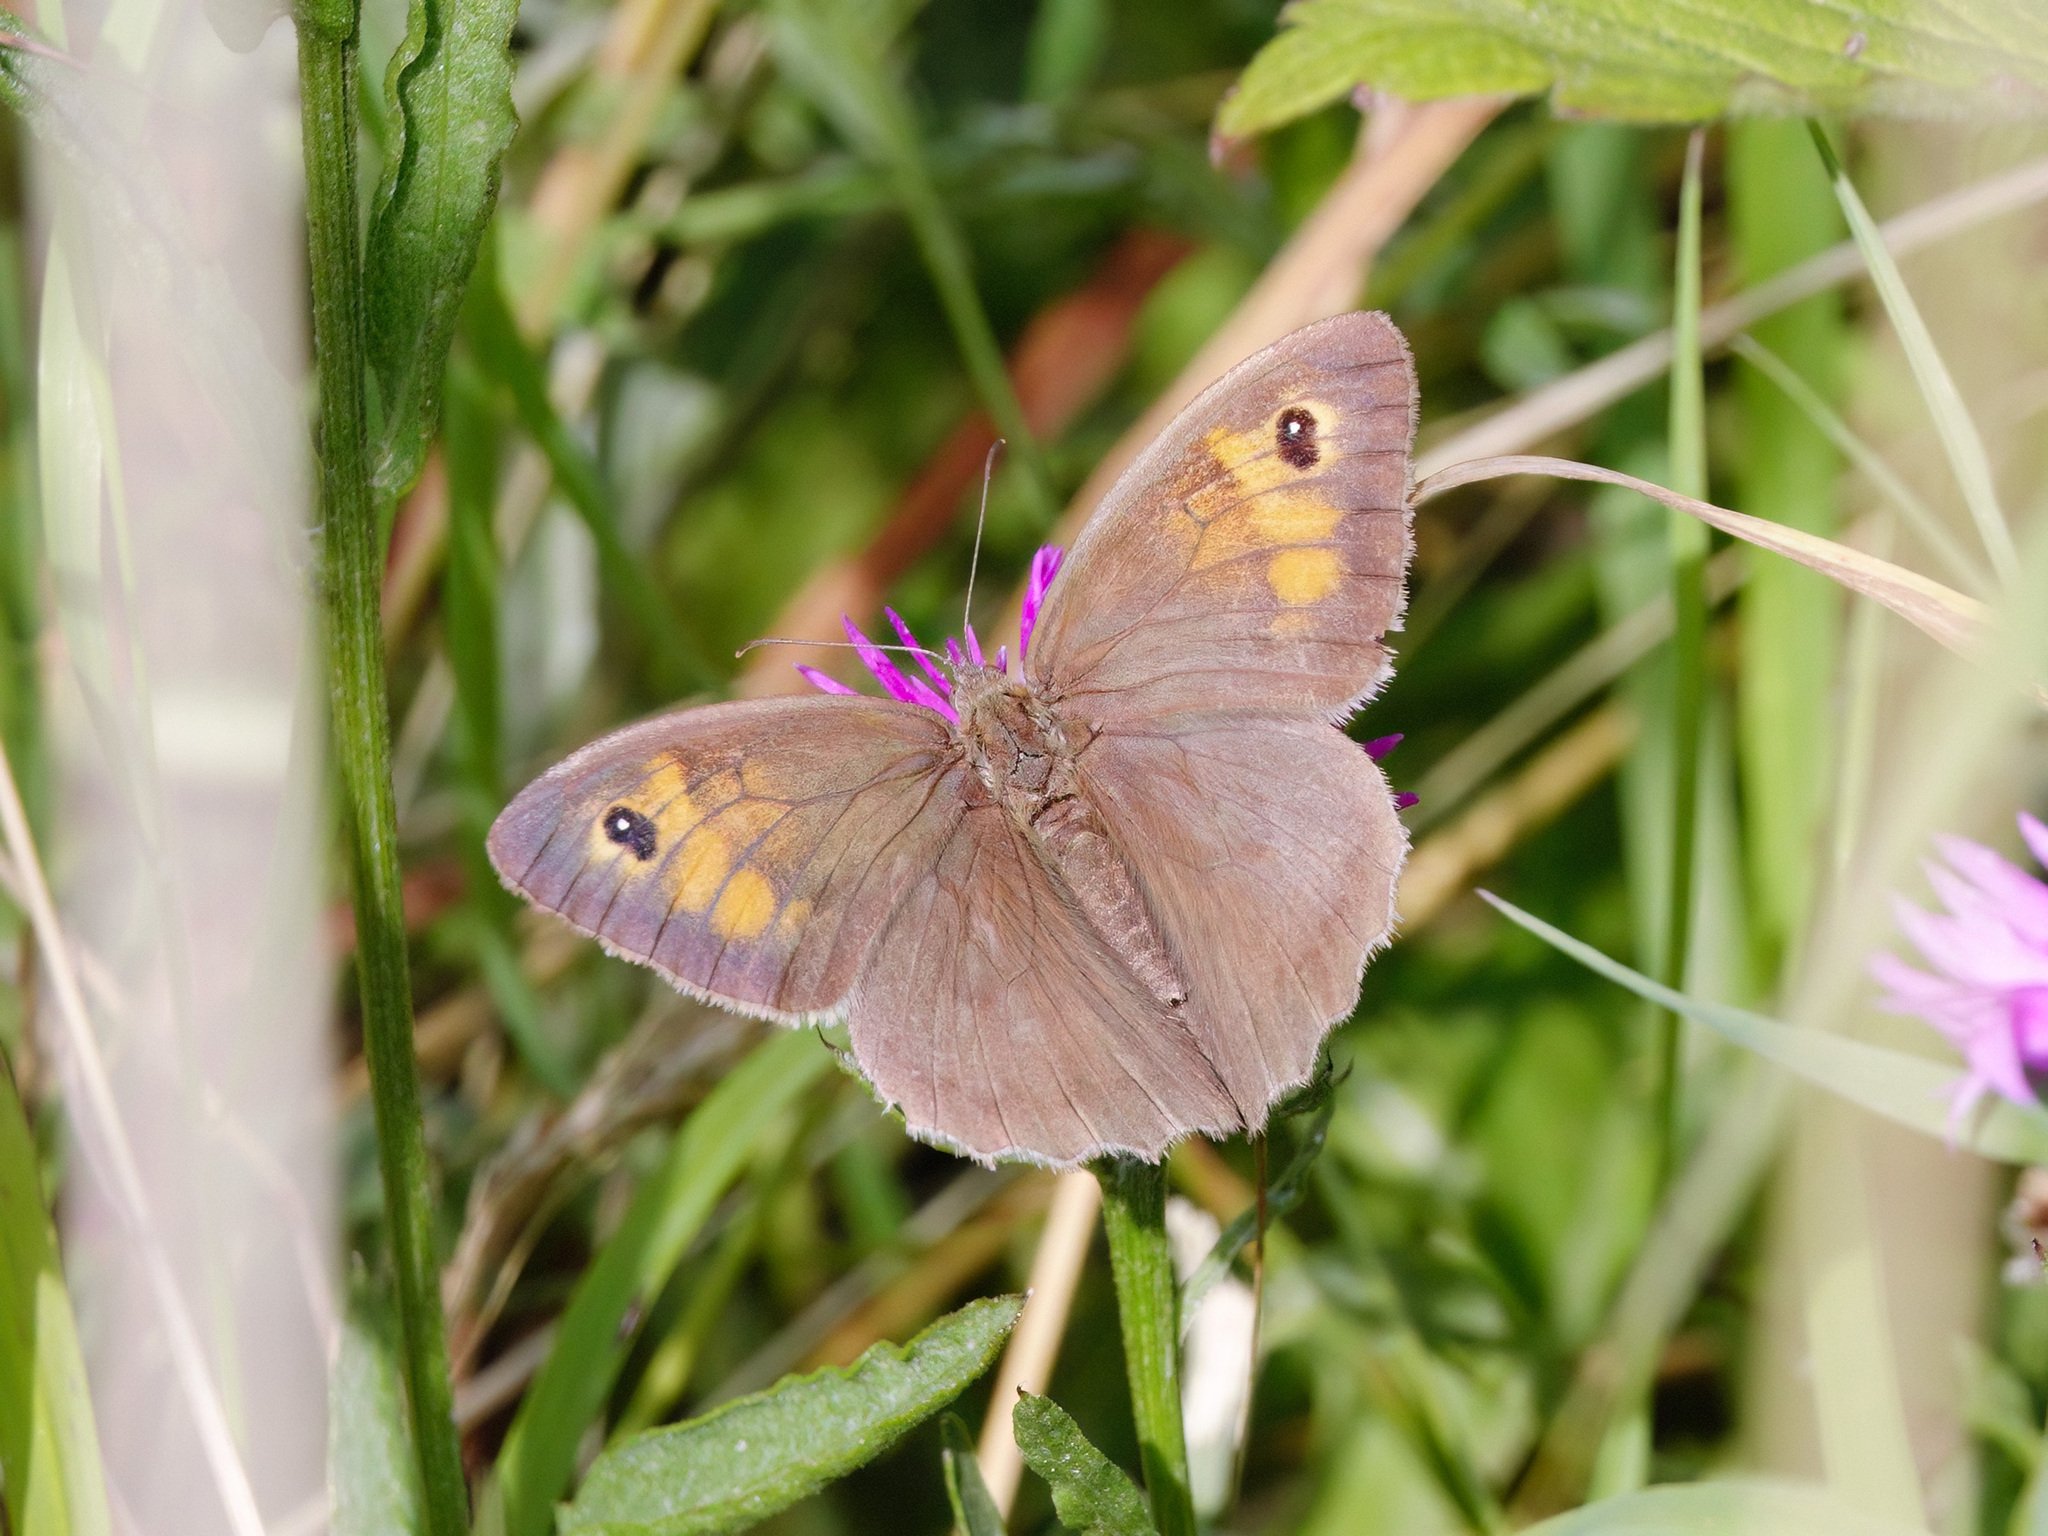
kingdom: Animalia
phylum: Arthropoda
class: Insecta
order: Lepidoptera
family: Nymphalidae
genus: Maniola
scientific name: Maniola jurtina
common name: Meadow brown
